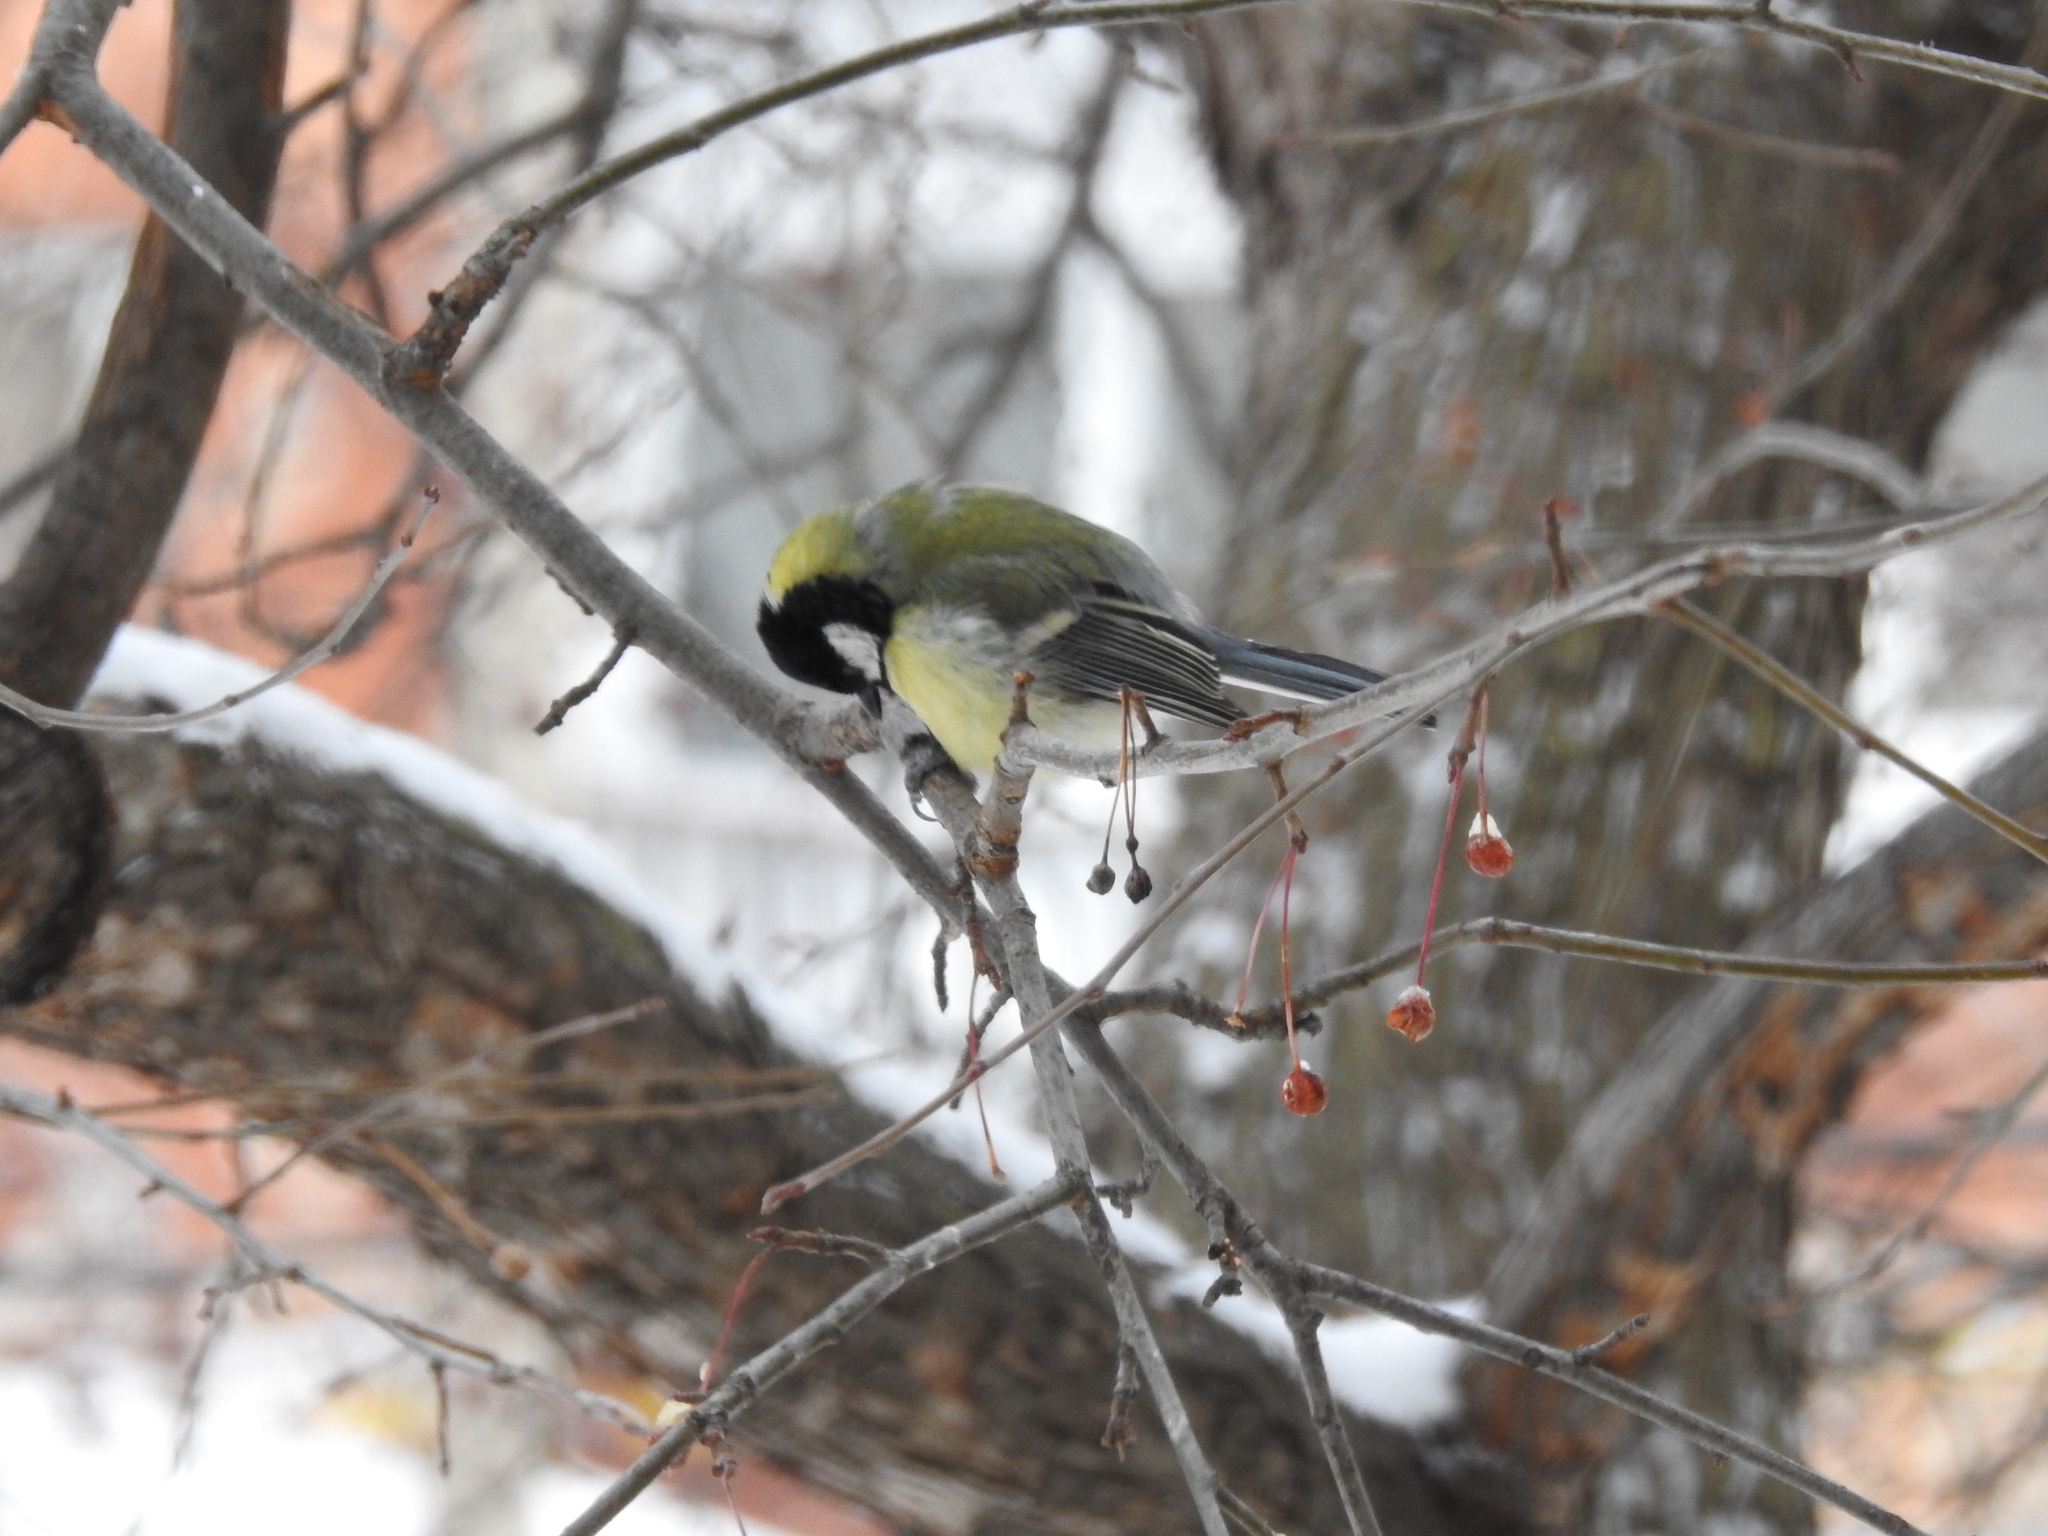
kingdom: Animalia
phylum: Chordata
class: Aves
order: Passeriformes
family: Paridae
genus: Parus
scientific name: Parus major
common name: Great tit
